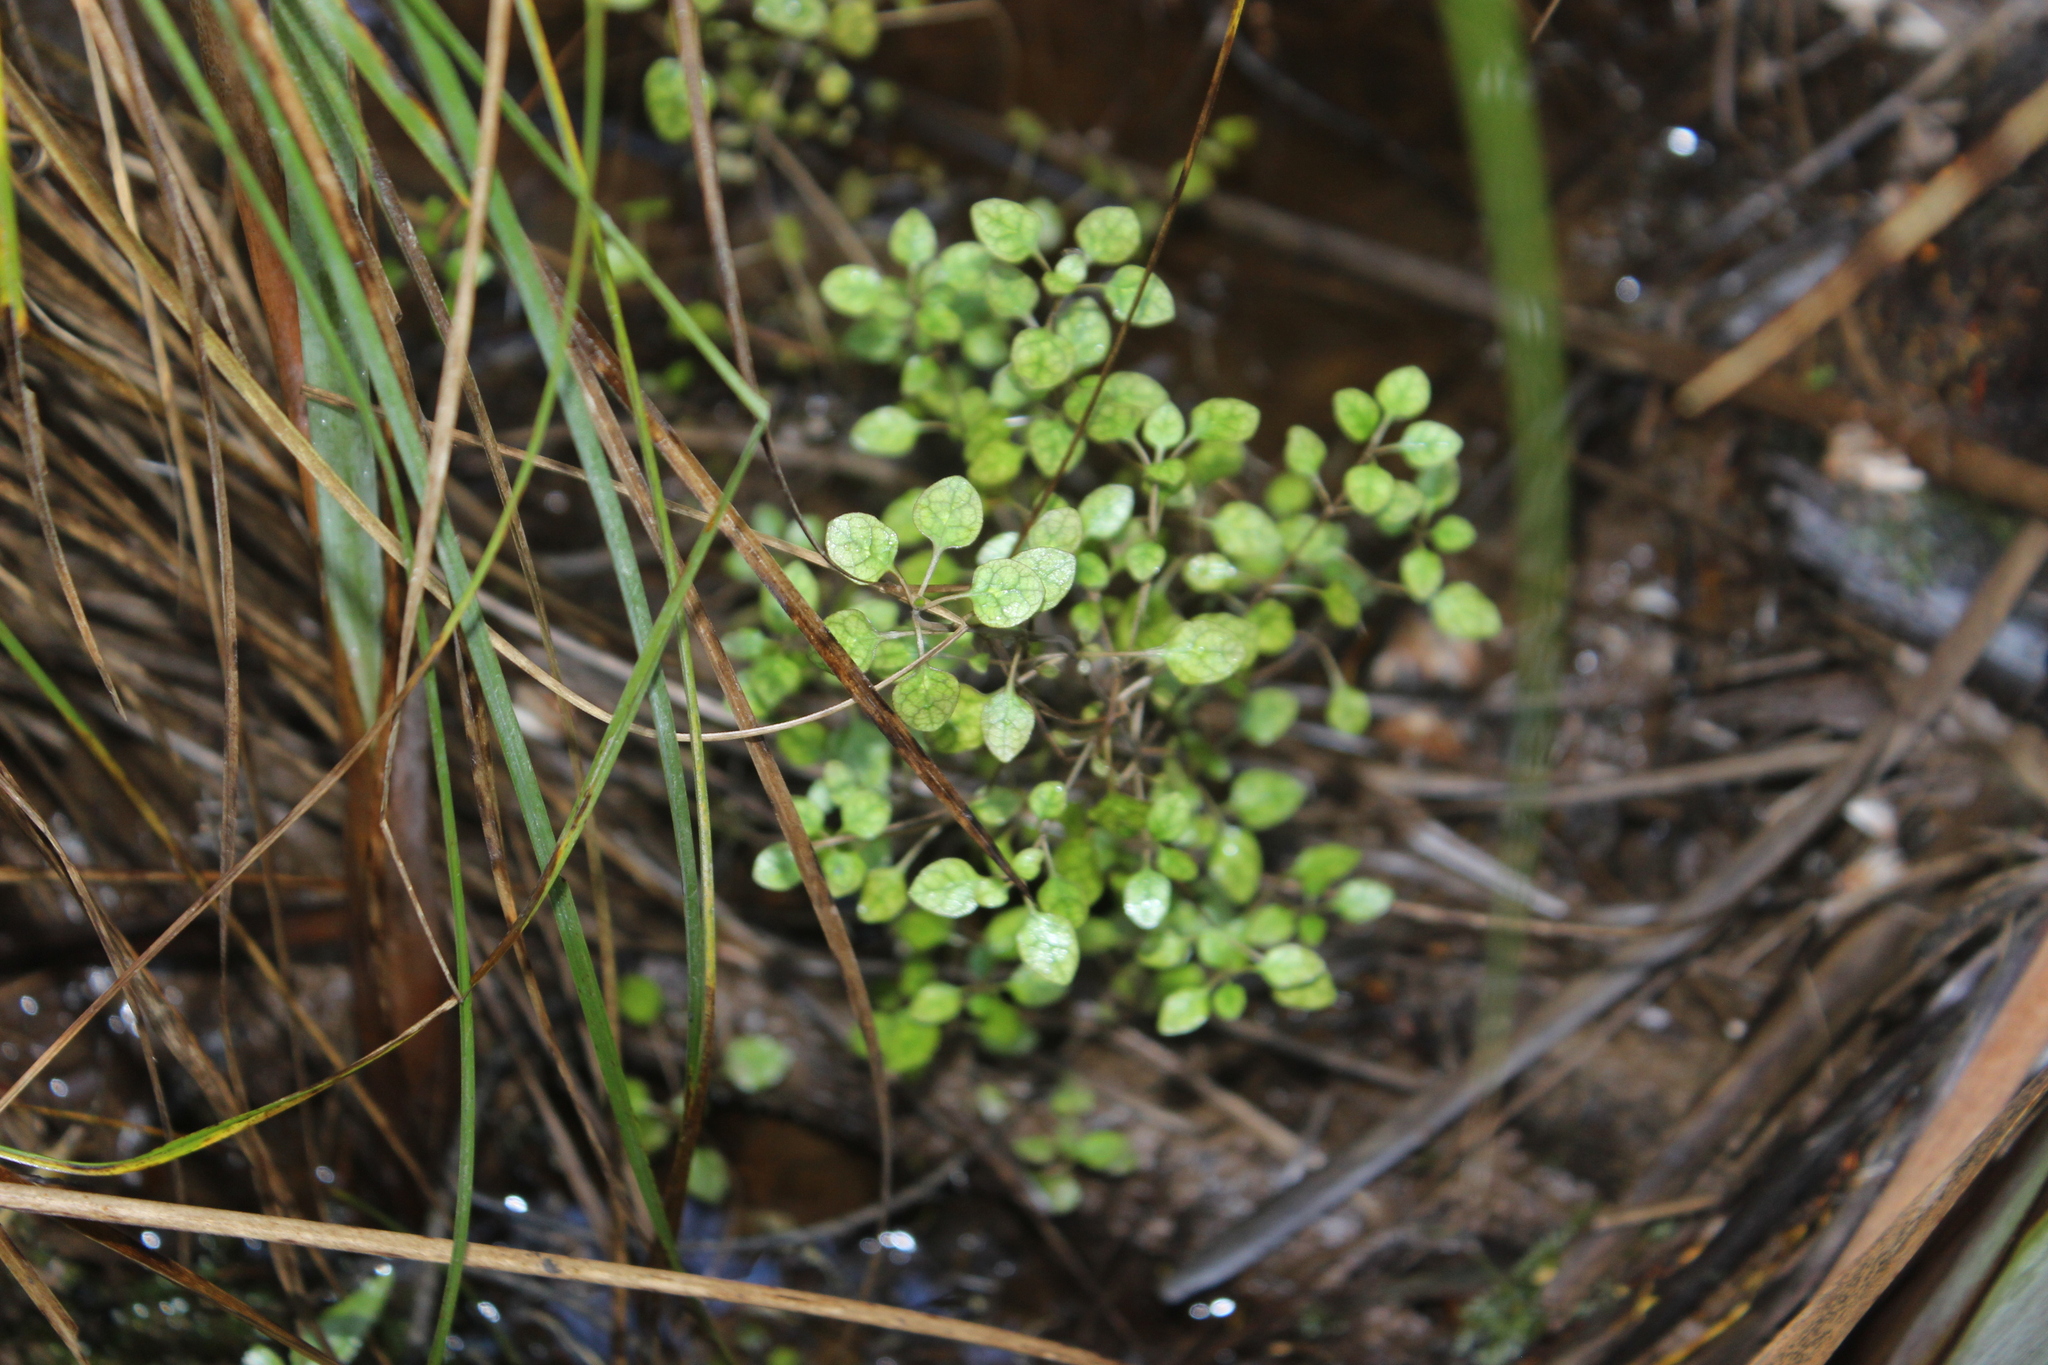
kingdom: Plantae
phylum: Tracheophyta
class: Magnoliopsida
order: Gentianales
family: Rubiaceae
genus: Coprosma
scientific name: Coprosma tenuicaulis
